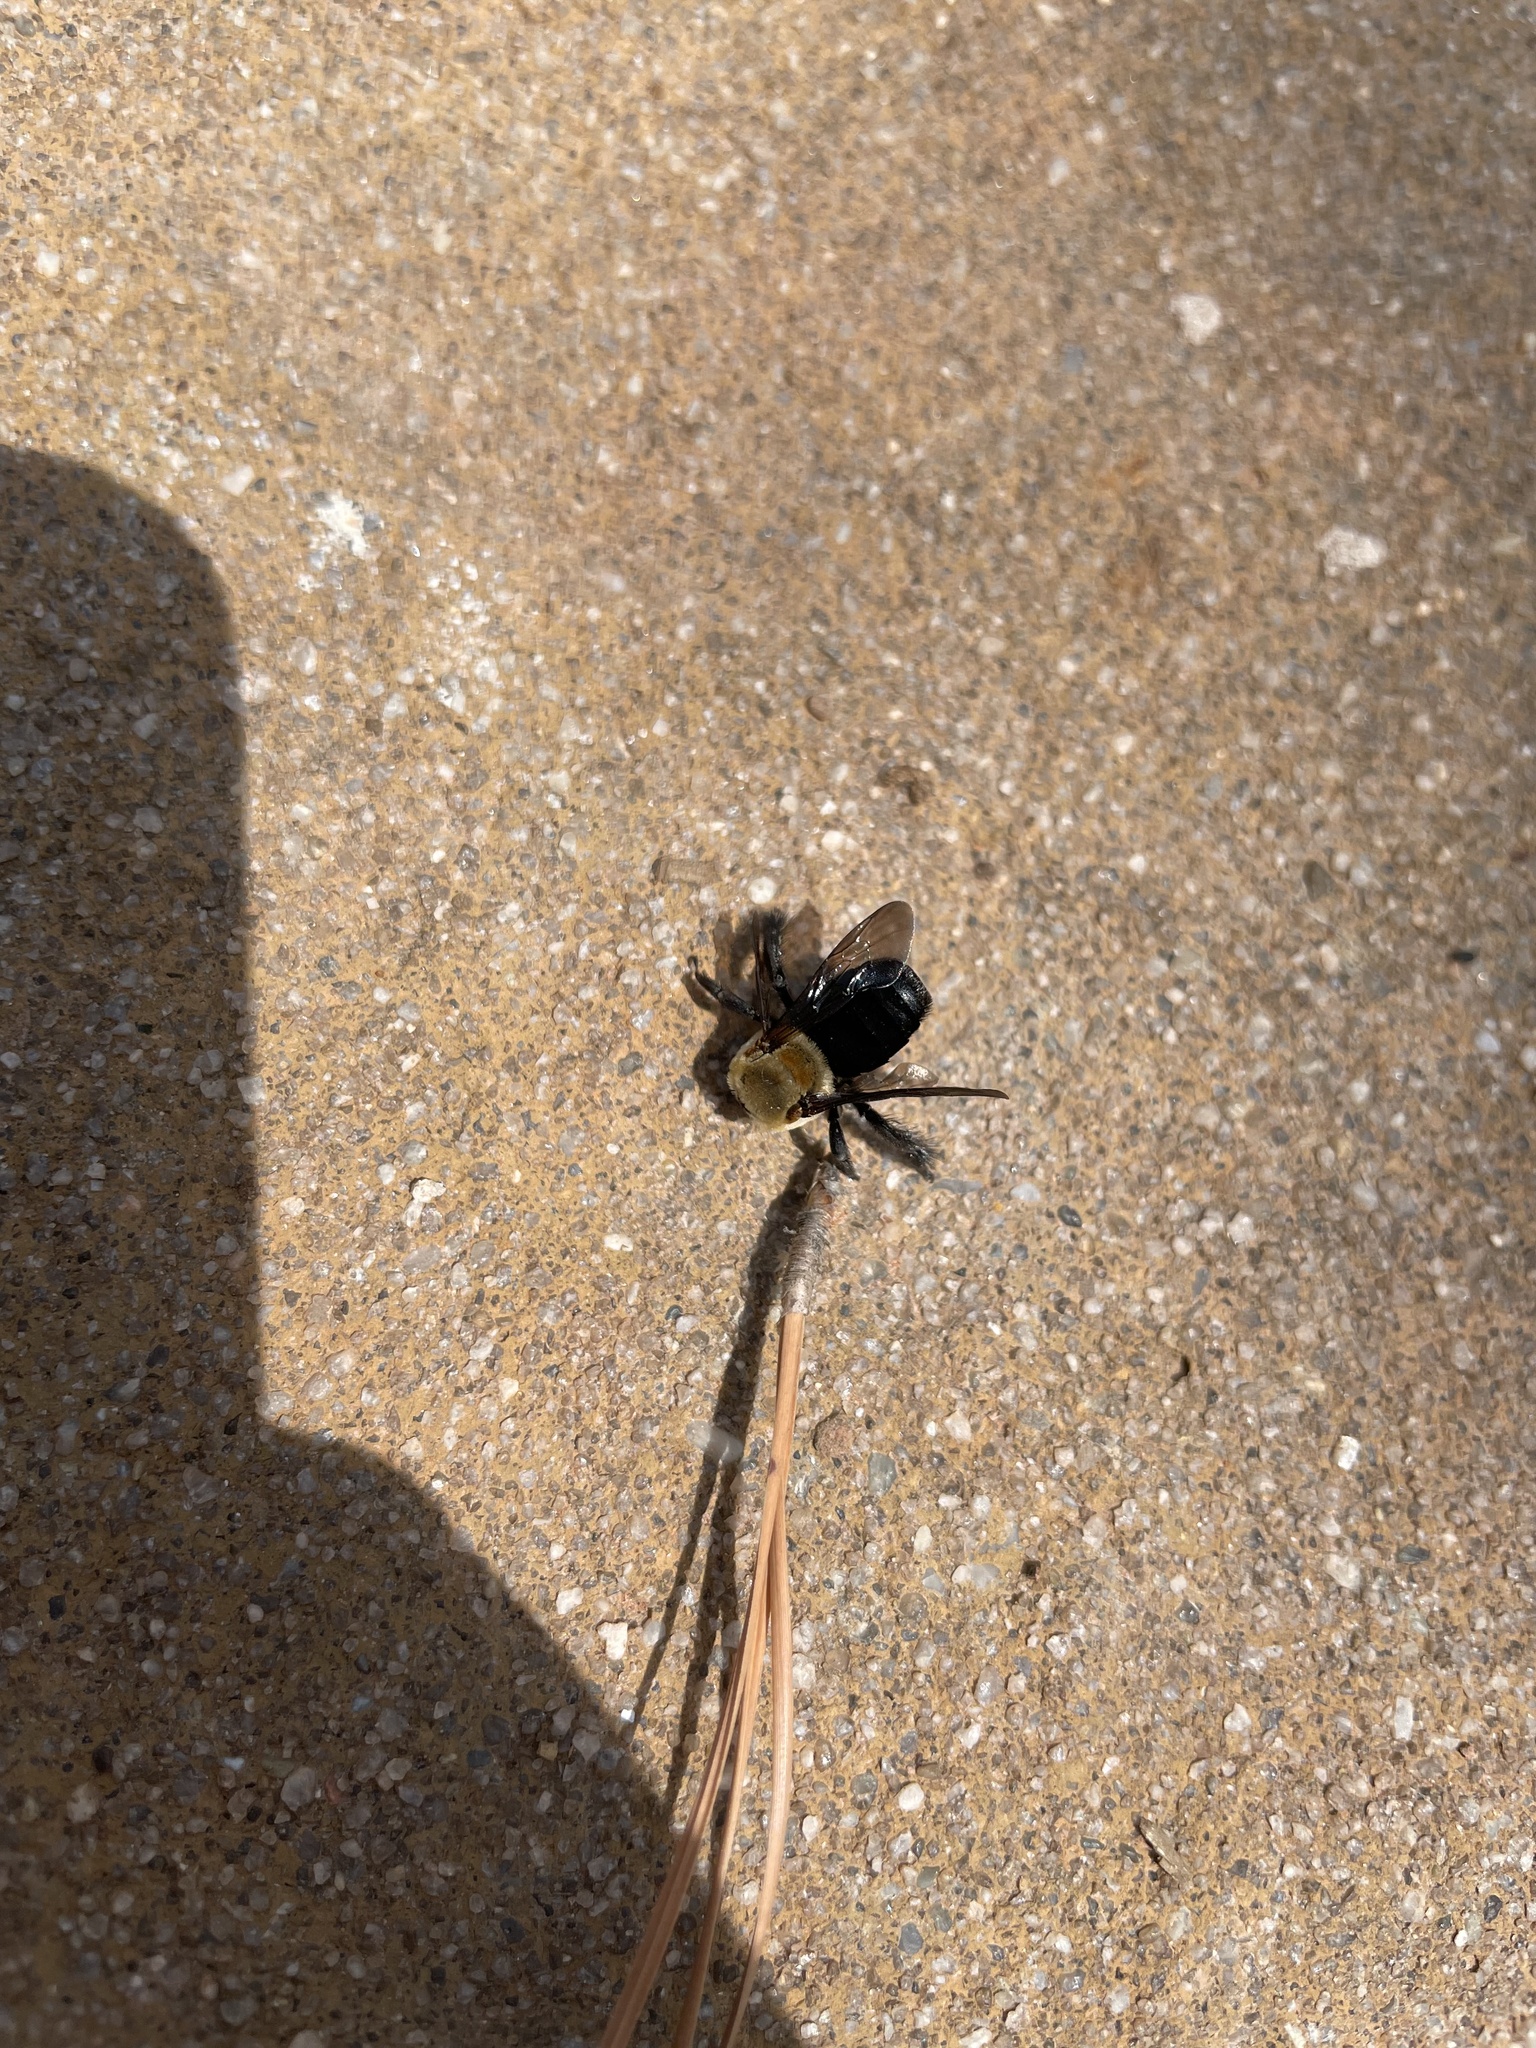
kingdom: Animalia
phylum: Arthropoda
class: Insecta
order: Hymenoptera
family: Apidae
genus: Ptilothrix
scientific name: Ptilothrix bombiformis
